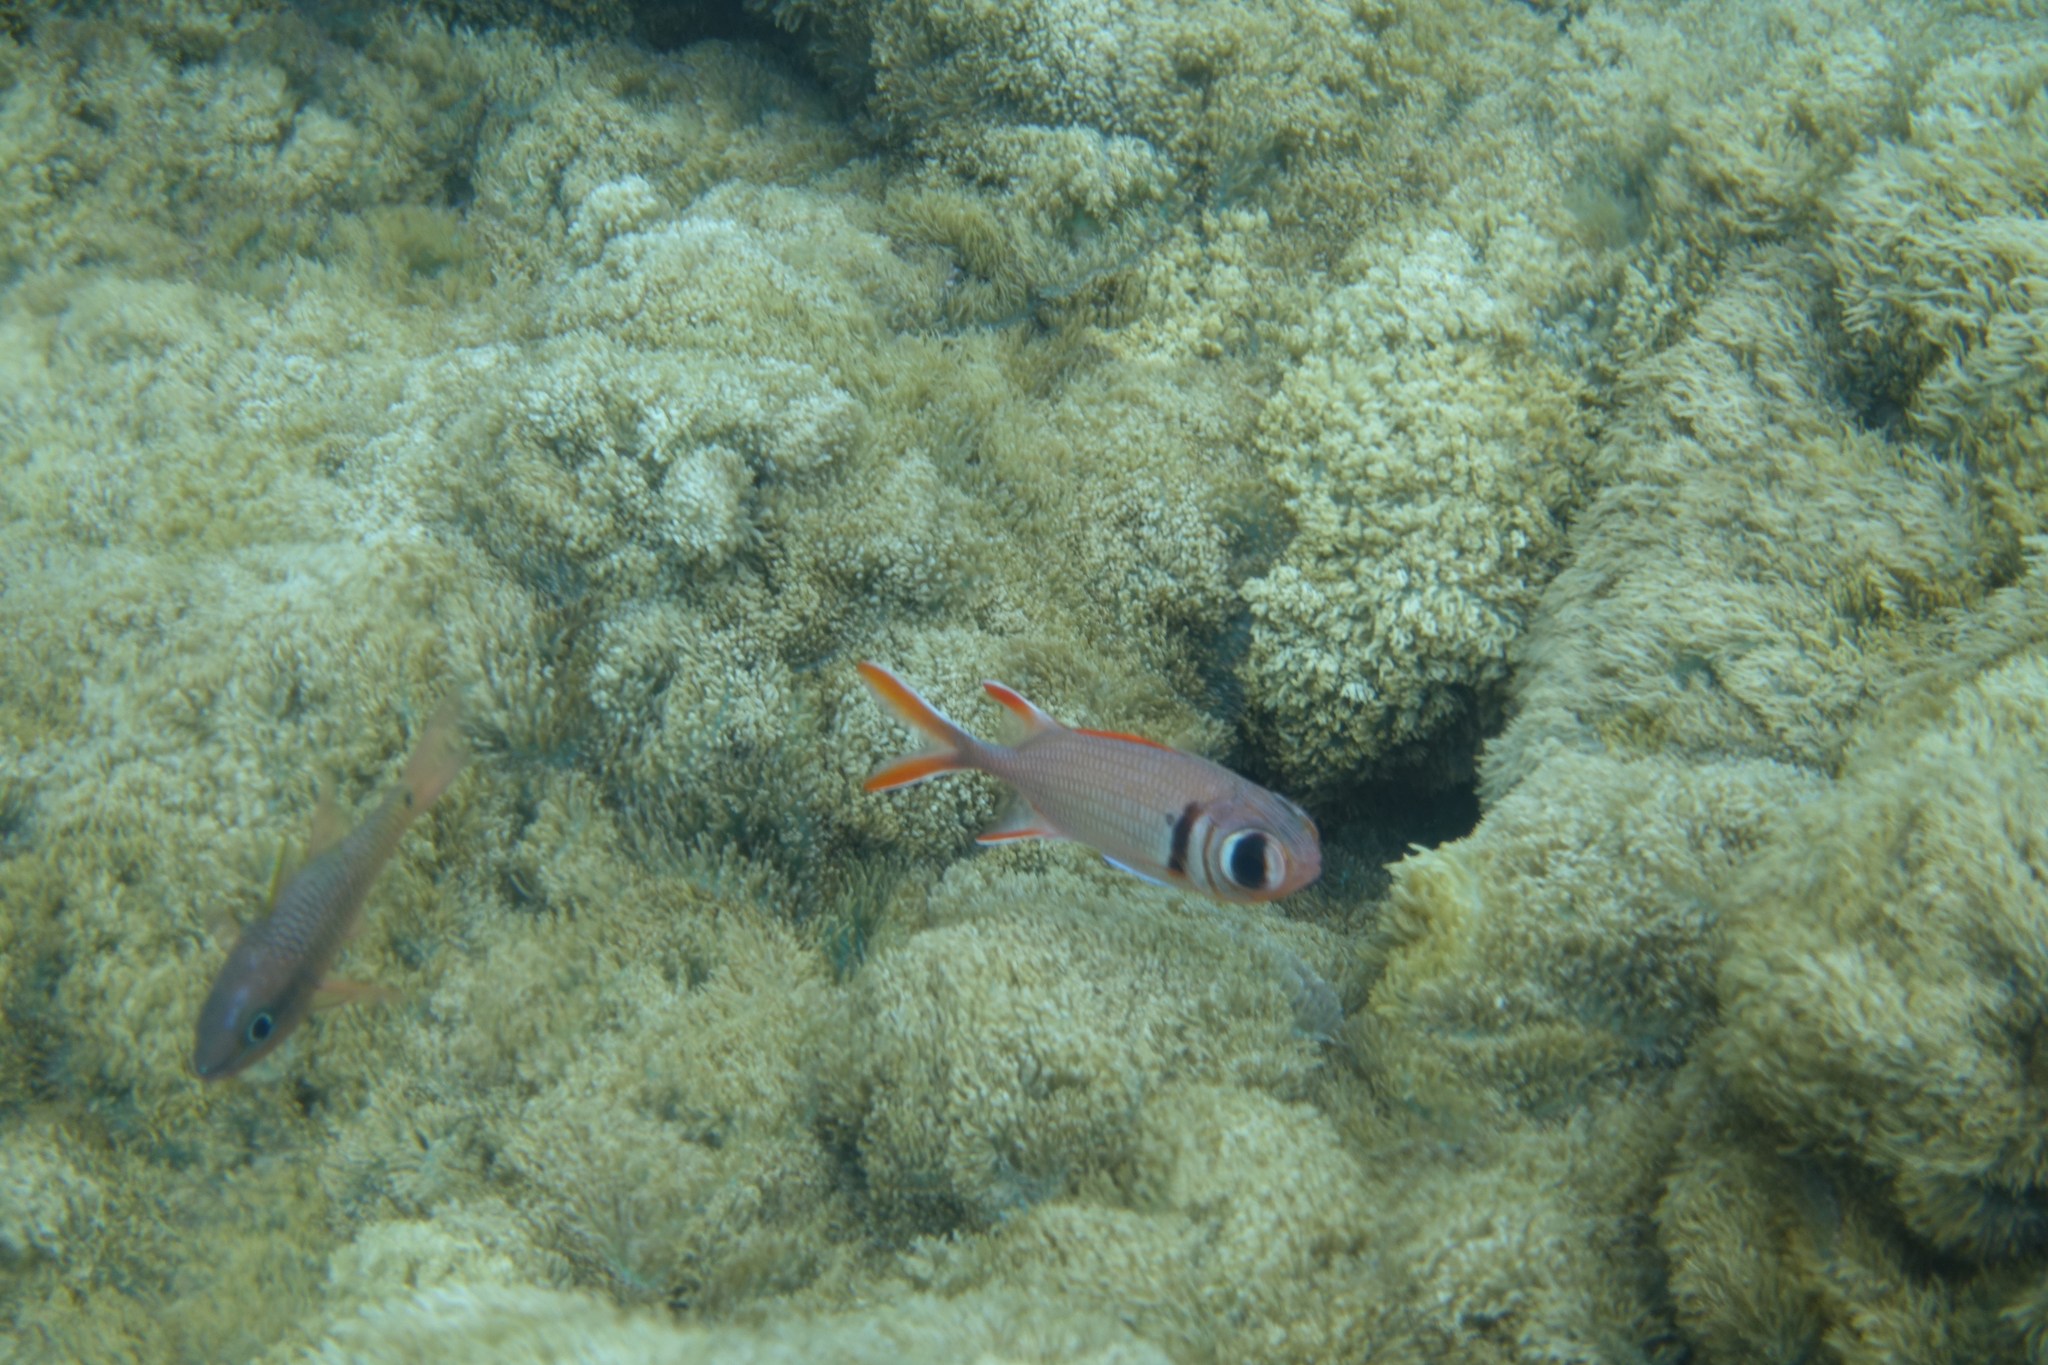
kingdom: Animalia
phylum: Chordata
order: Beryciformes
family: Holocentridae
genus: Myripristis
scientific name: Myripristis kuntee
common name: Epaulette soldierfish
